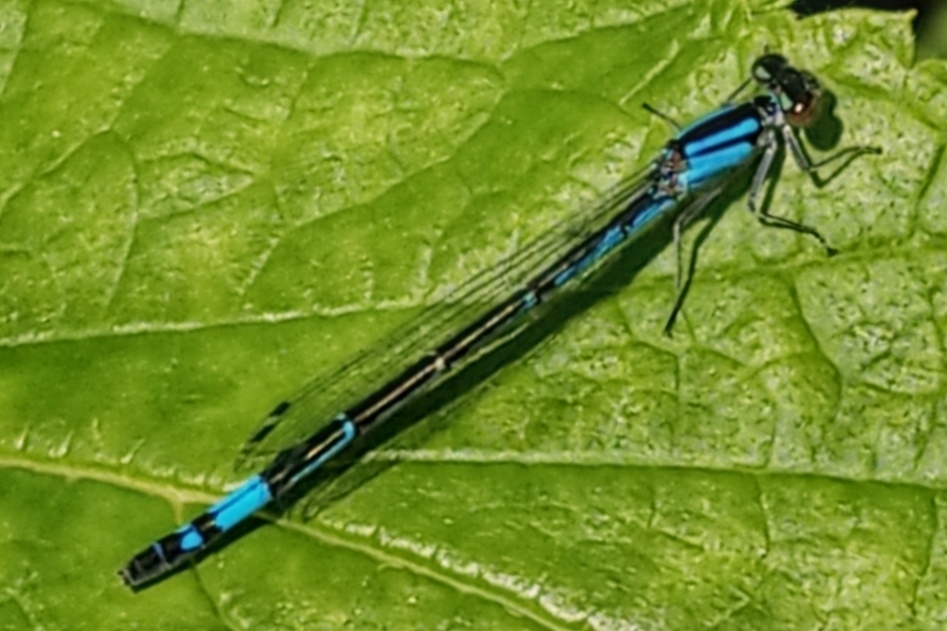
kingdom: Animalia
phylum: Arthropoda
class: Insecta
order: Odonata
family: Coenagrionidae
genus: Enallagma
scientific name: Enallagma aspersum
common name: Azure bluet
